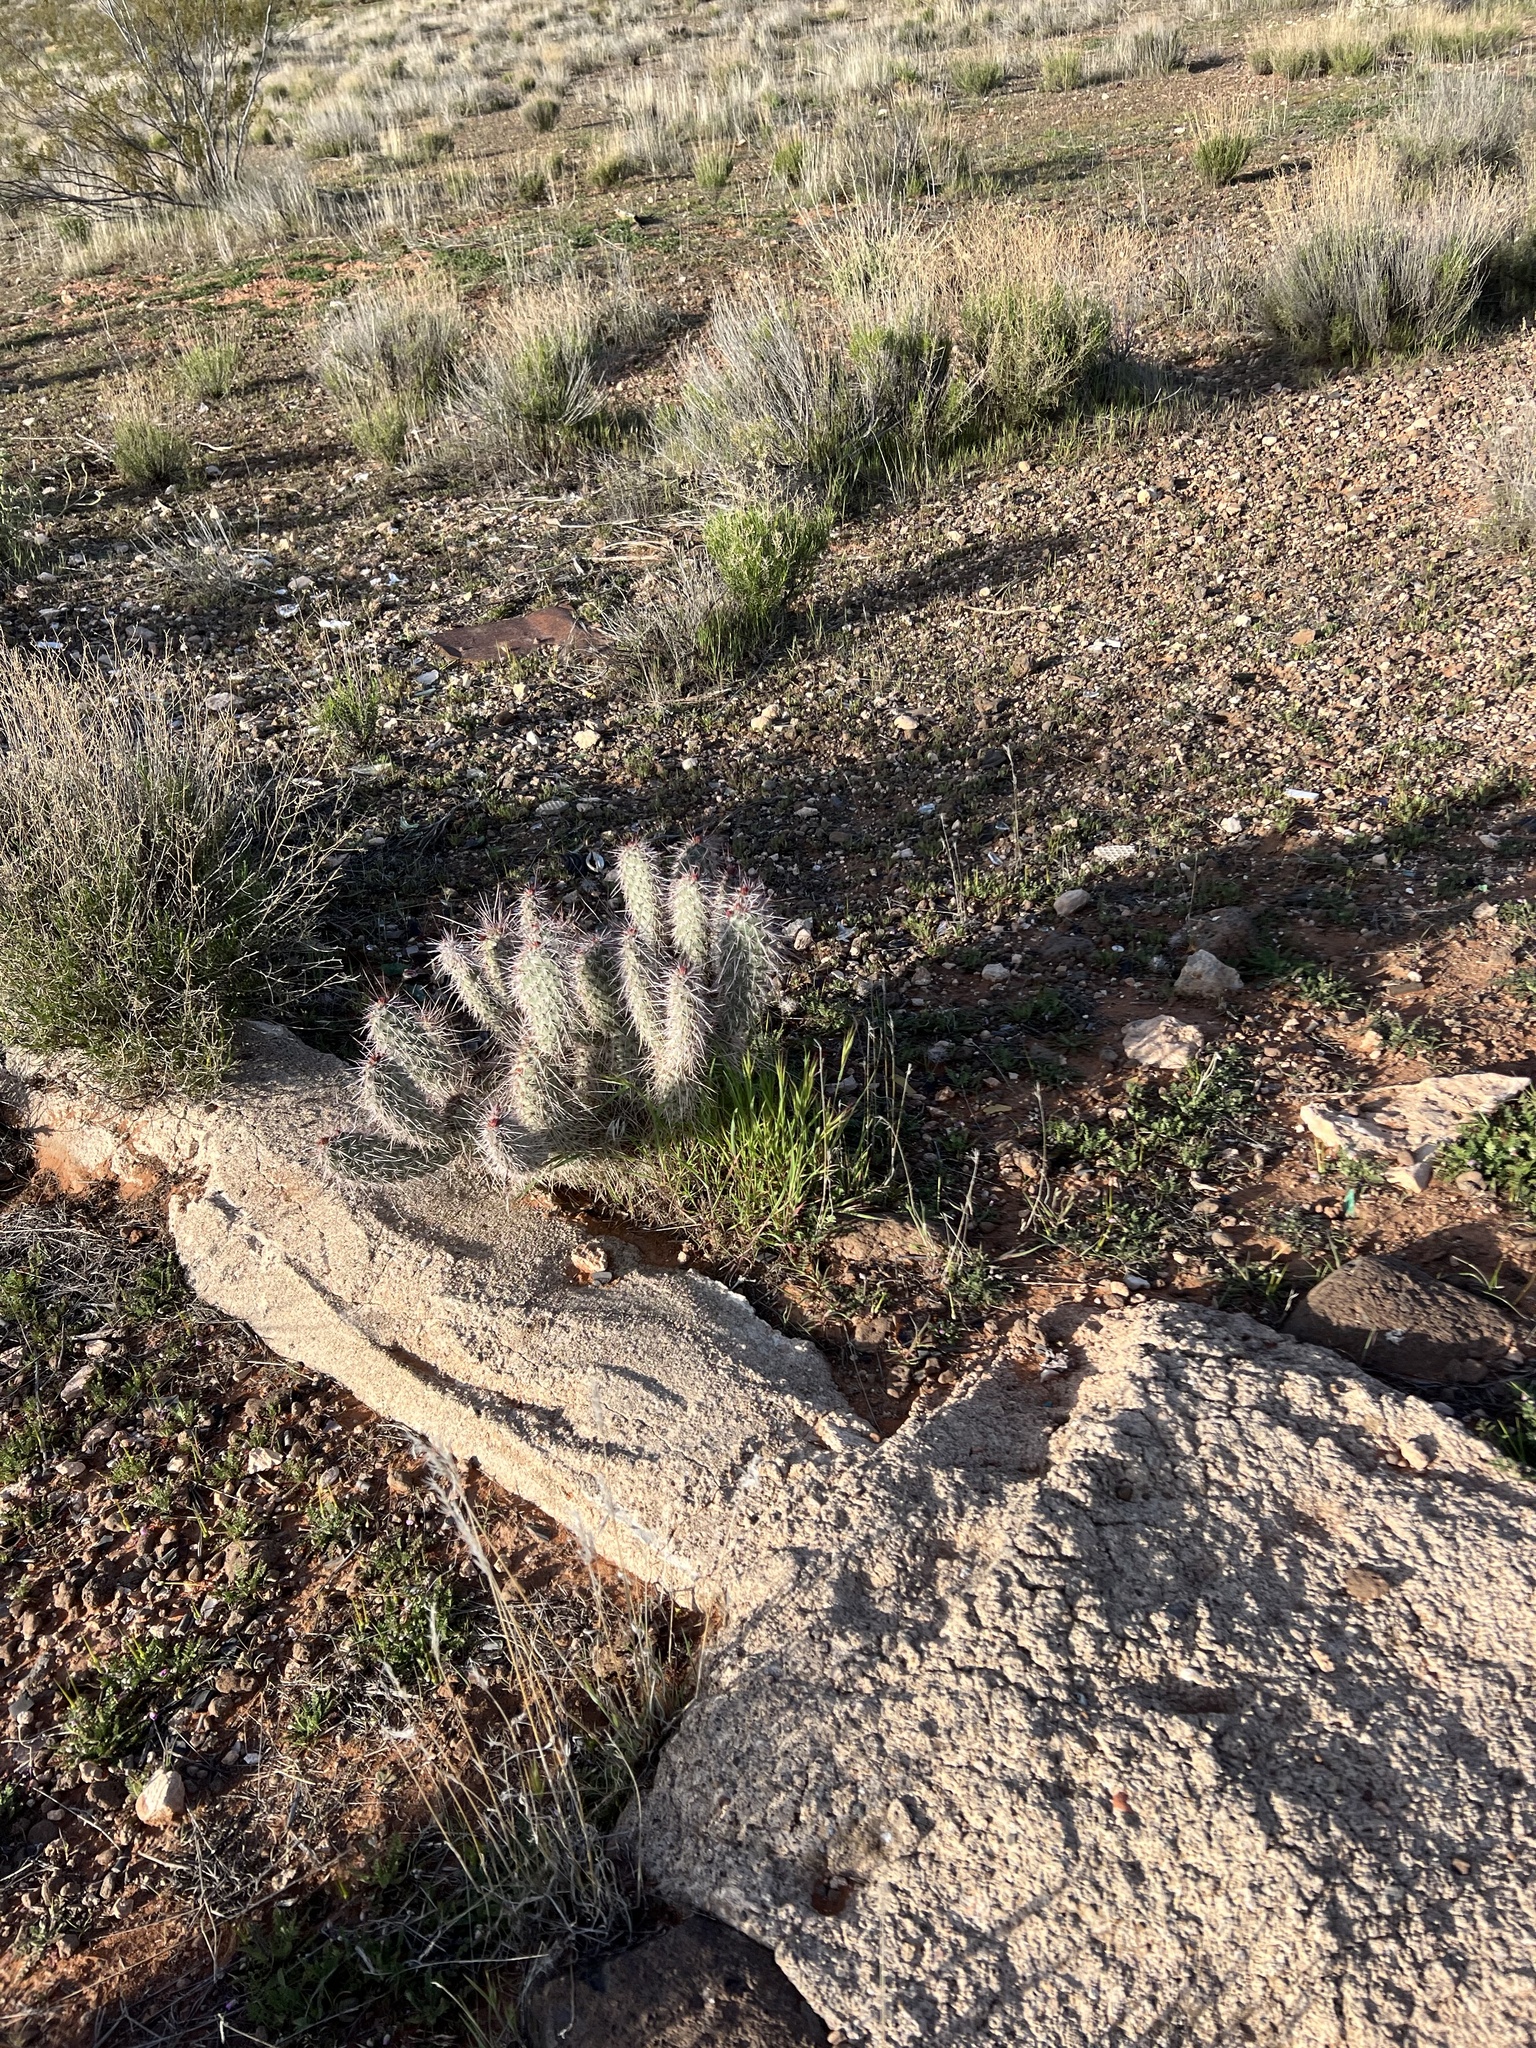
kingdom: Plantae
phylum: Tracheophyta
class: Magnoliopsida
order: Caryophyllales
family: Cactaceae
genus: Opuntia
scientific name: Opuntia polyacantha
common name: Plains prickly-pear
